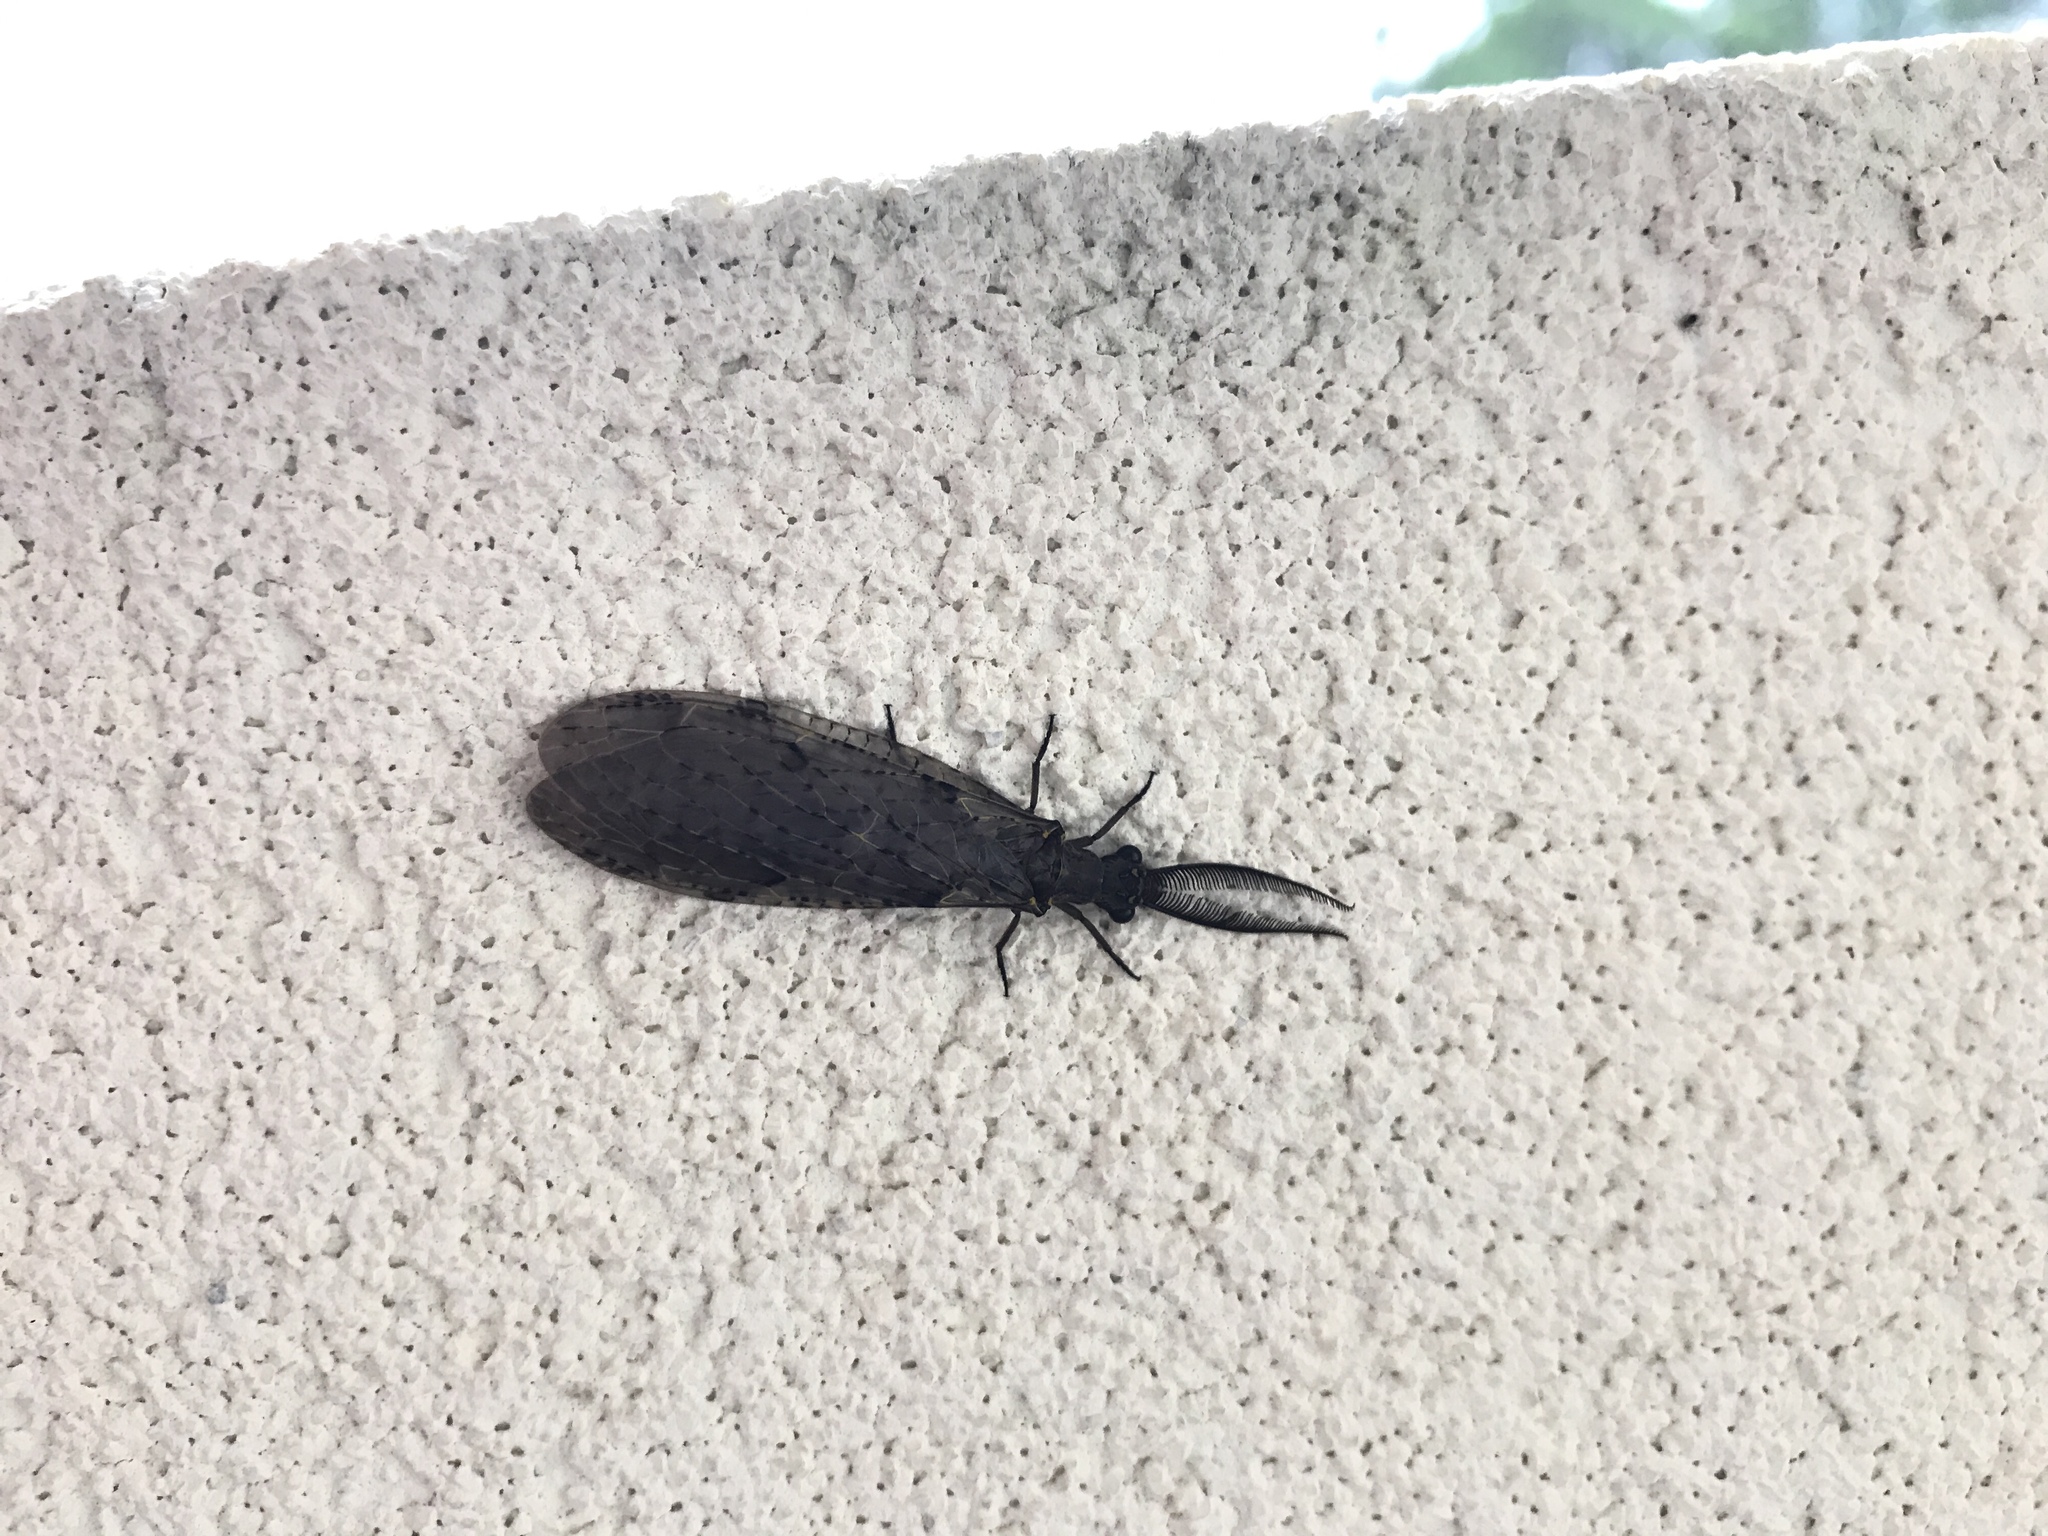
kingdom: Animalia
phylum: Arthropoda
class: Insecta
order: Megaloptera
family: Corydalidae
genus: Chauliodes
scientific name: Chauliodes rastricornis
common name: Spring fishfly
